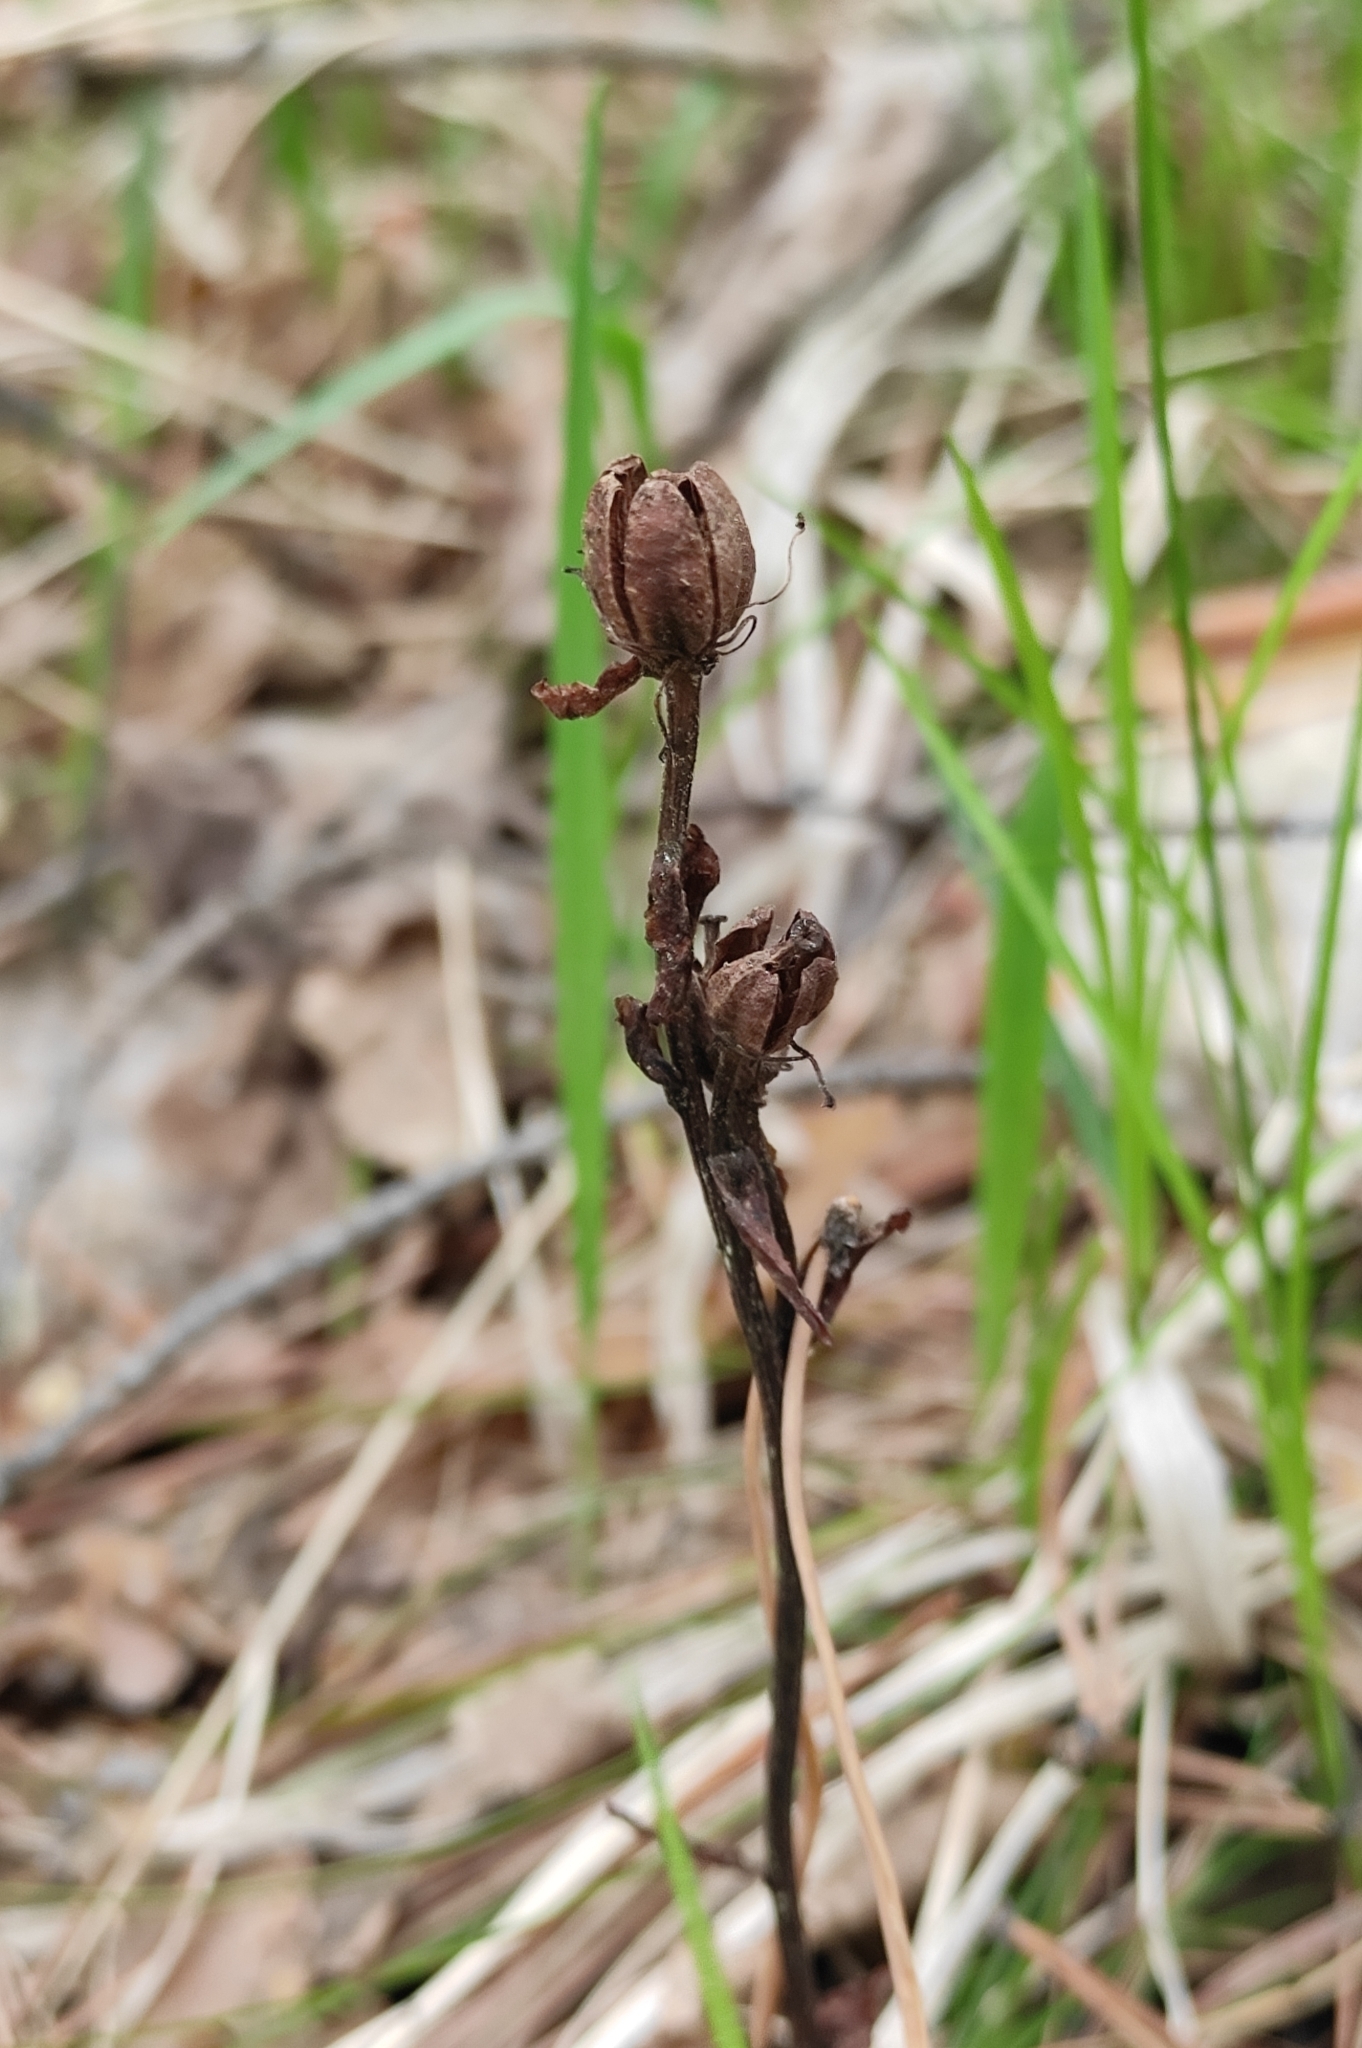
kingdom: Plantae
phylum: Tracheophyta
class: Magnoliopsida
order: Ericales
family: Ericaceae
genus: Hypopitys
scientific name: Hypopitys monotropa
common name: Yellow bird's-nest
